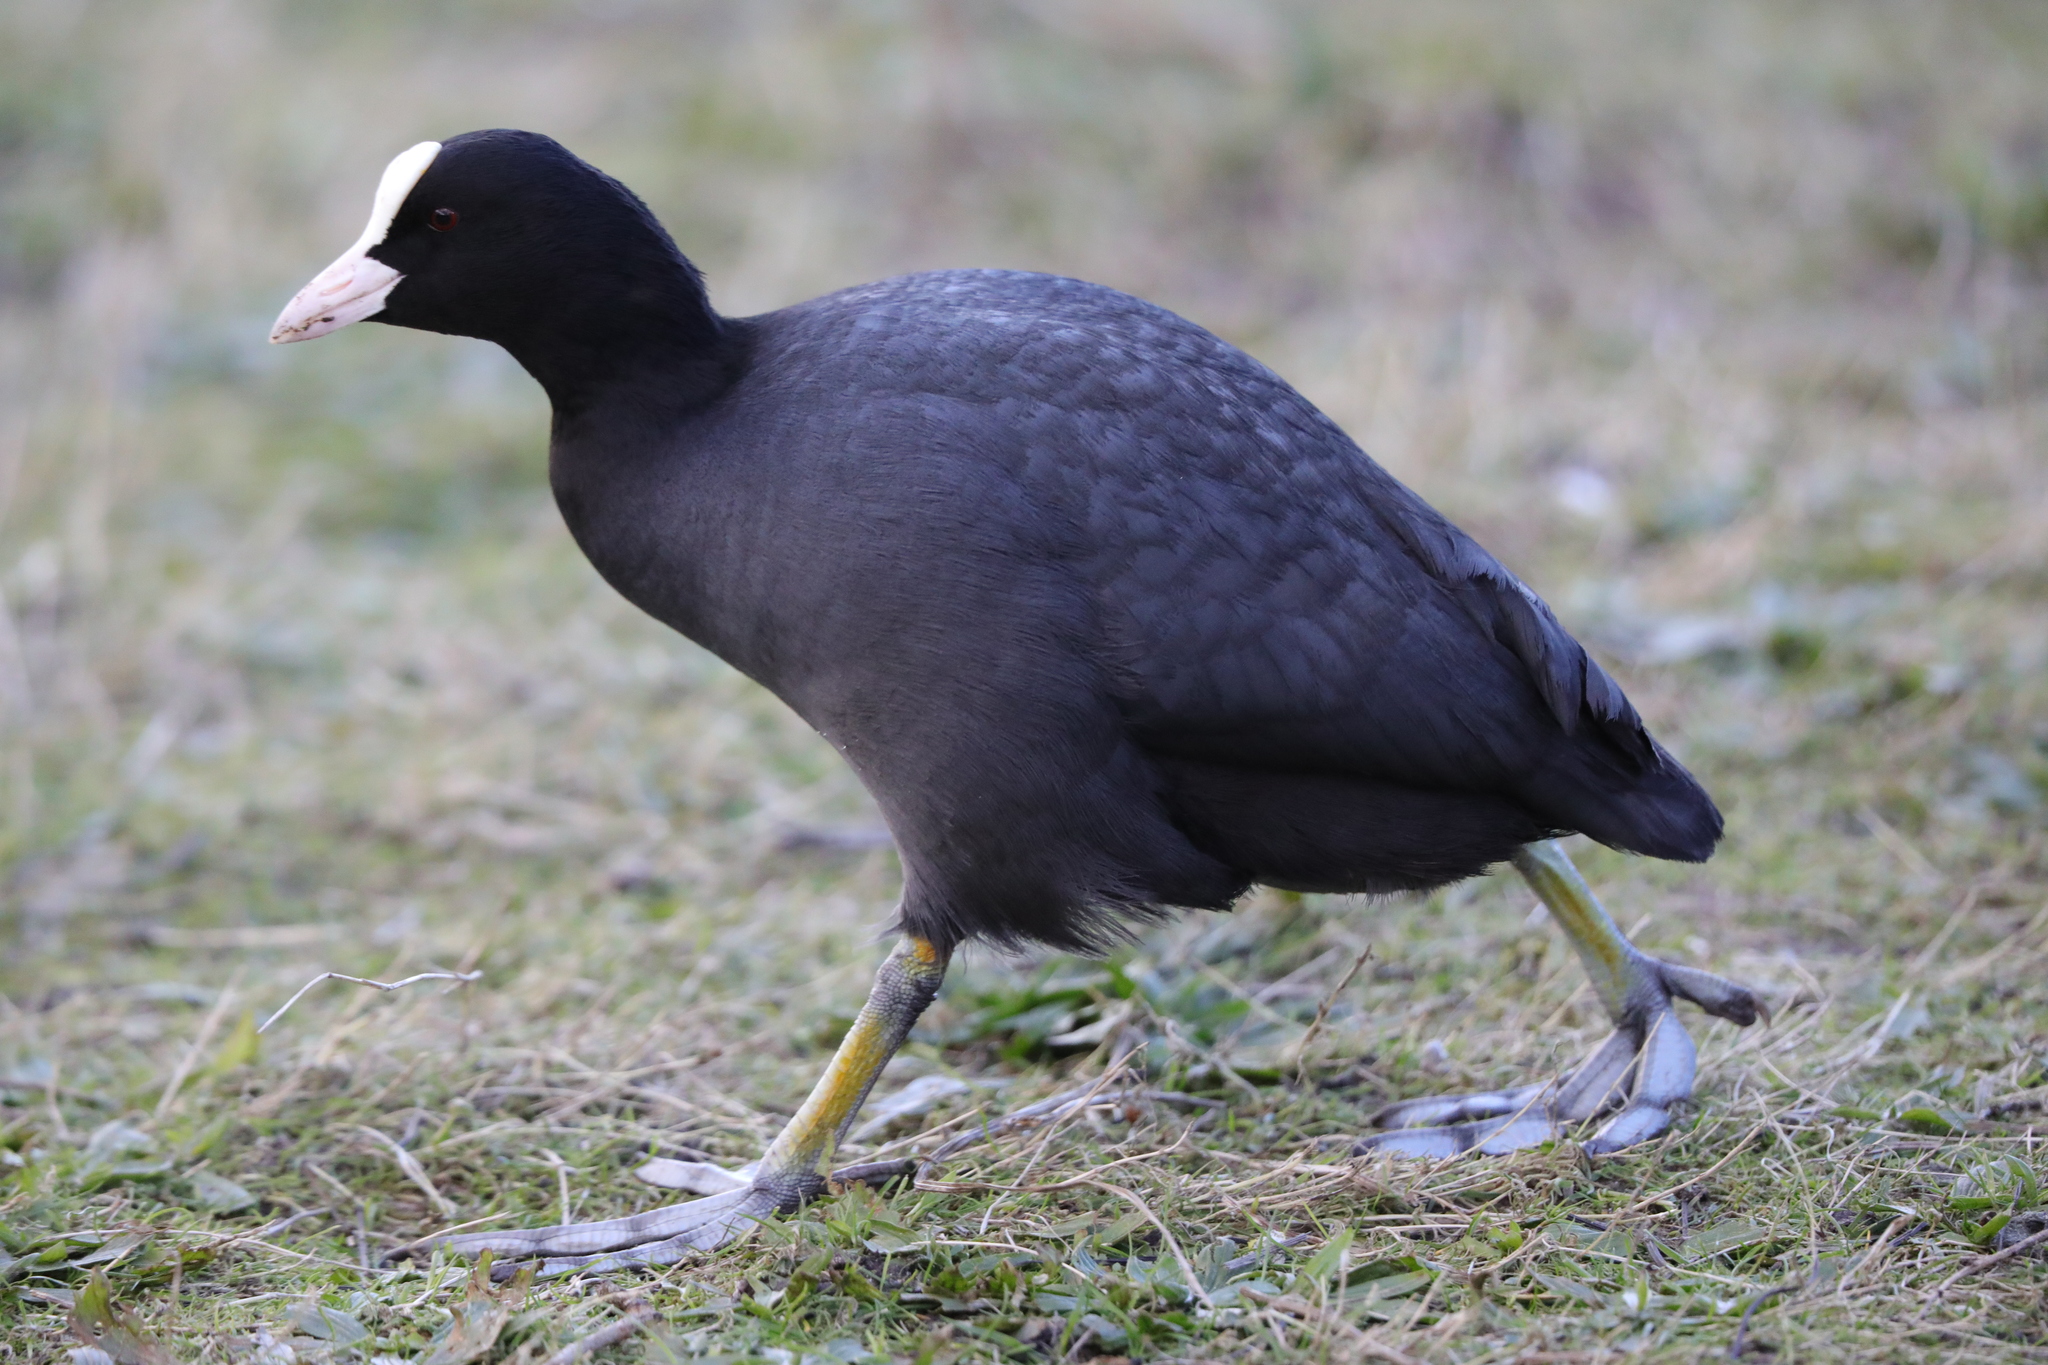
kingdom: Animalia
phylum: Chordata
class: Aves
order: Gruiformes
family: Rallidae
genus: Fulica
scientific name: Fulica atra
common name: Eurasian coot
